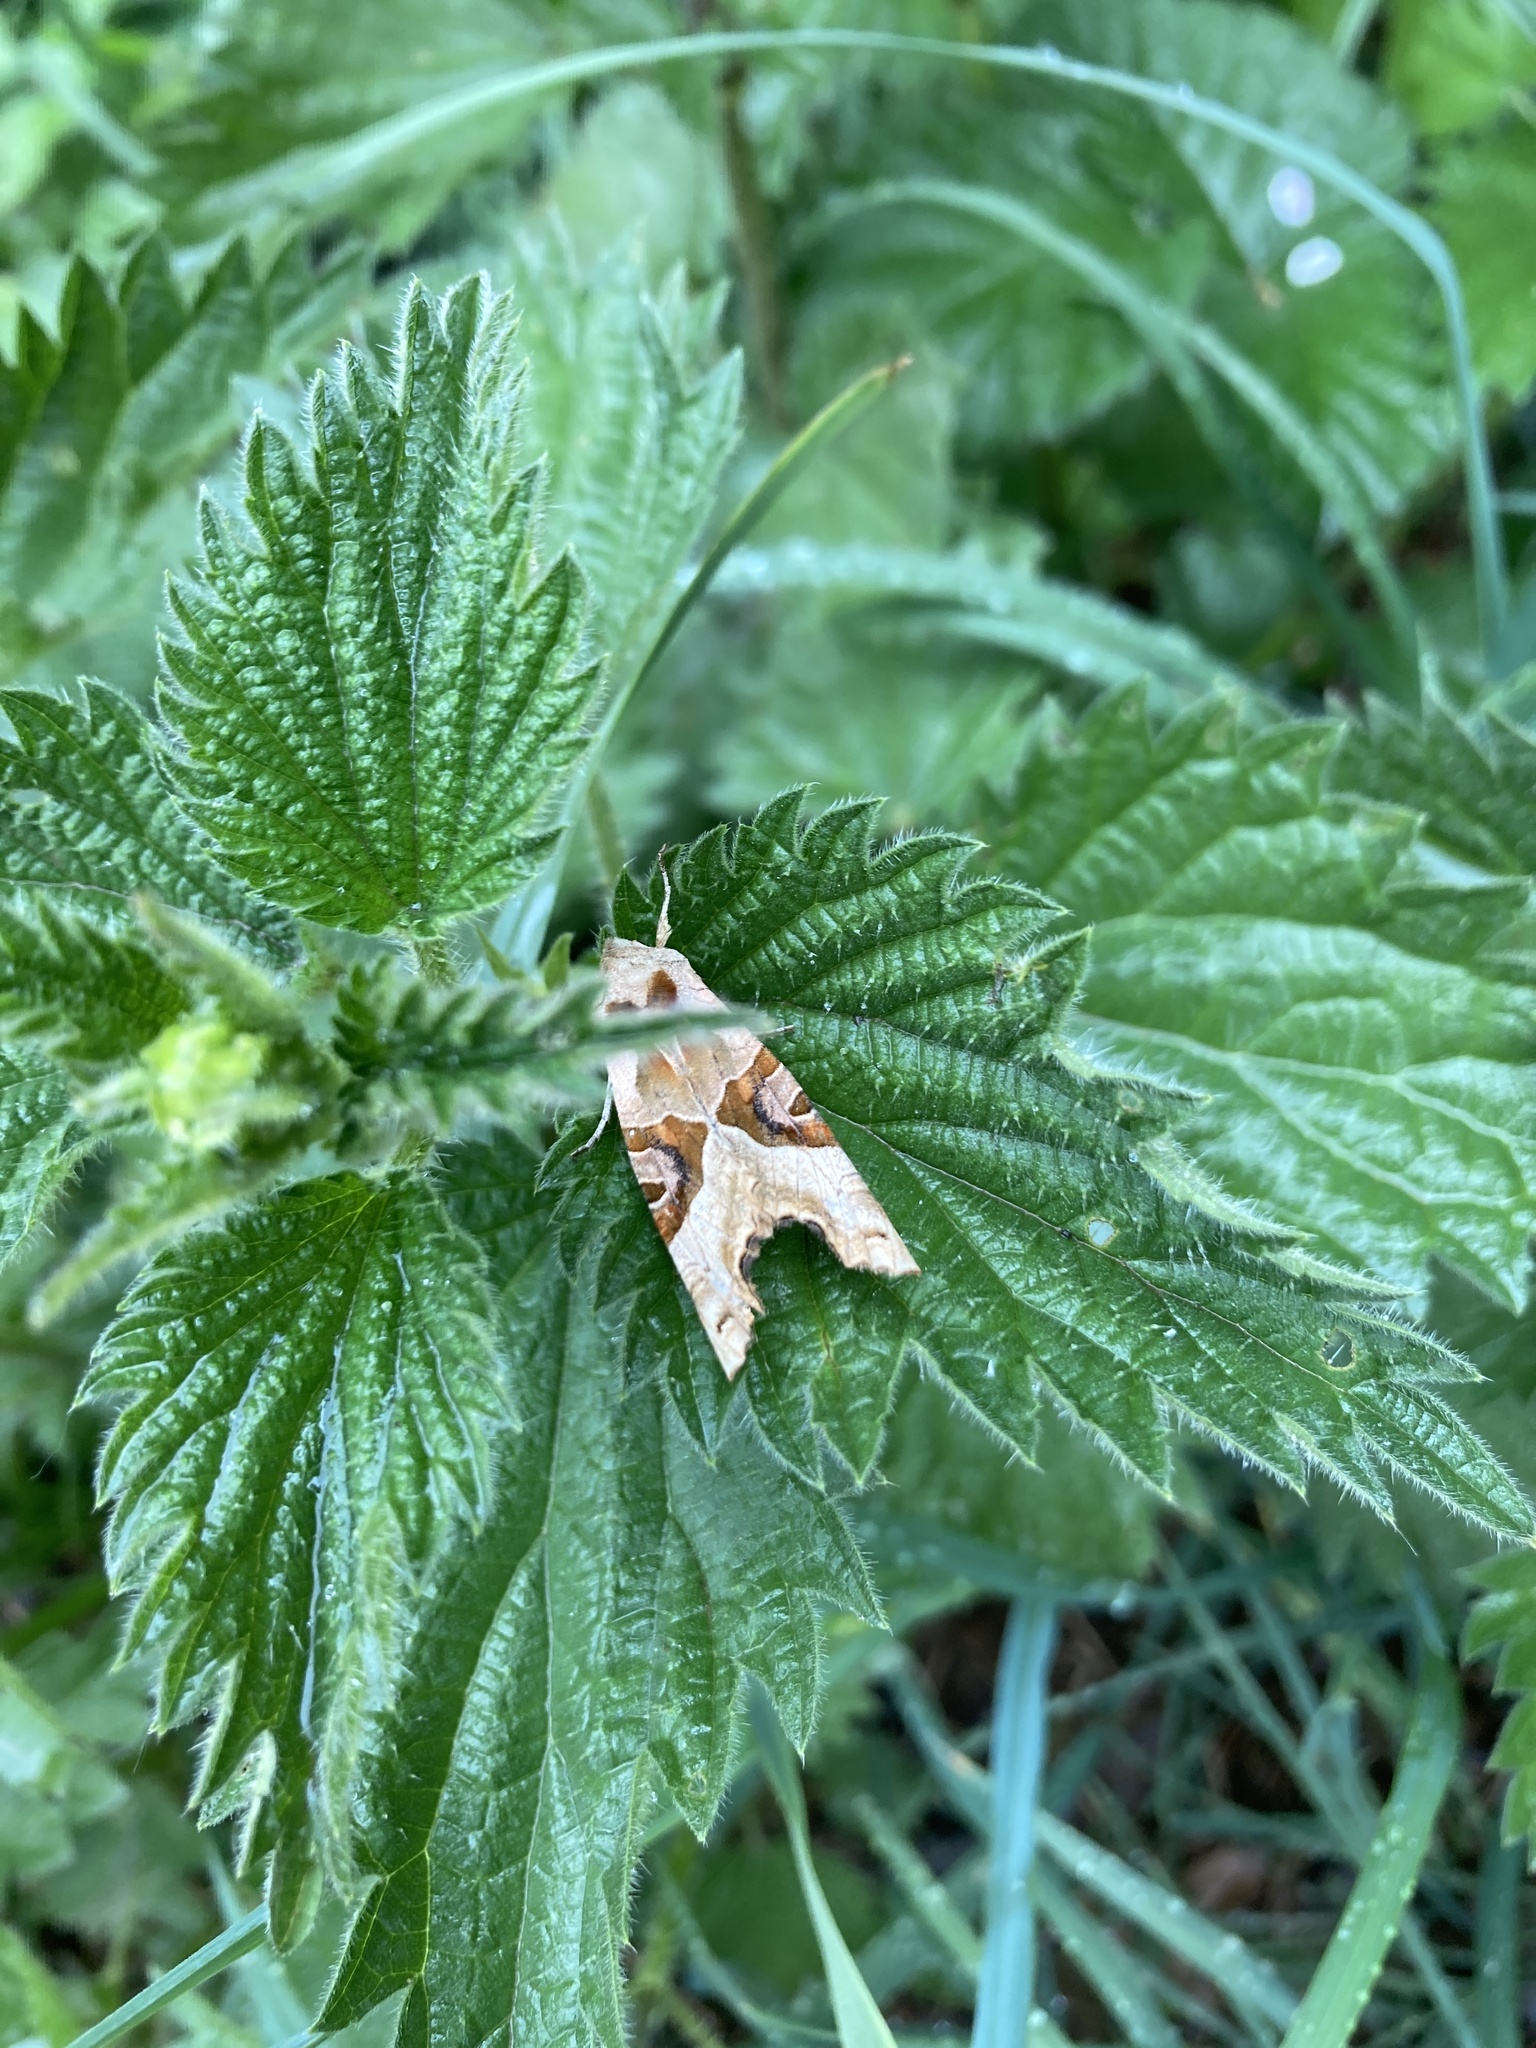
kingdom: Animalia
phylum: Arthropoda
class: Insecta
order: Lepidoptera
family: Noctuidae
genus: Phlogophora
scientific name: Phlogophora meticulosa
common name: Angle shades
